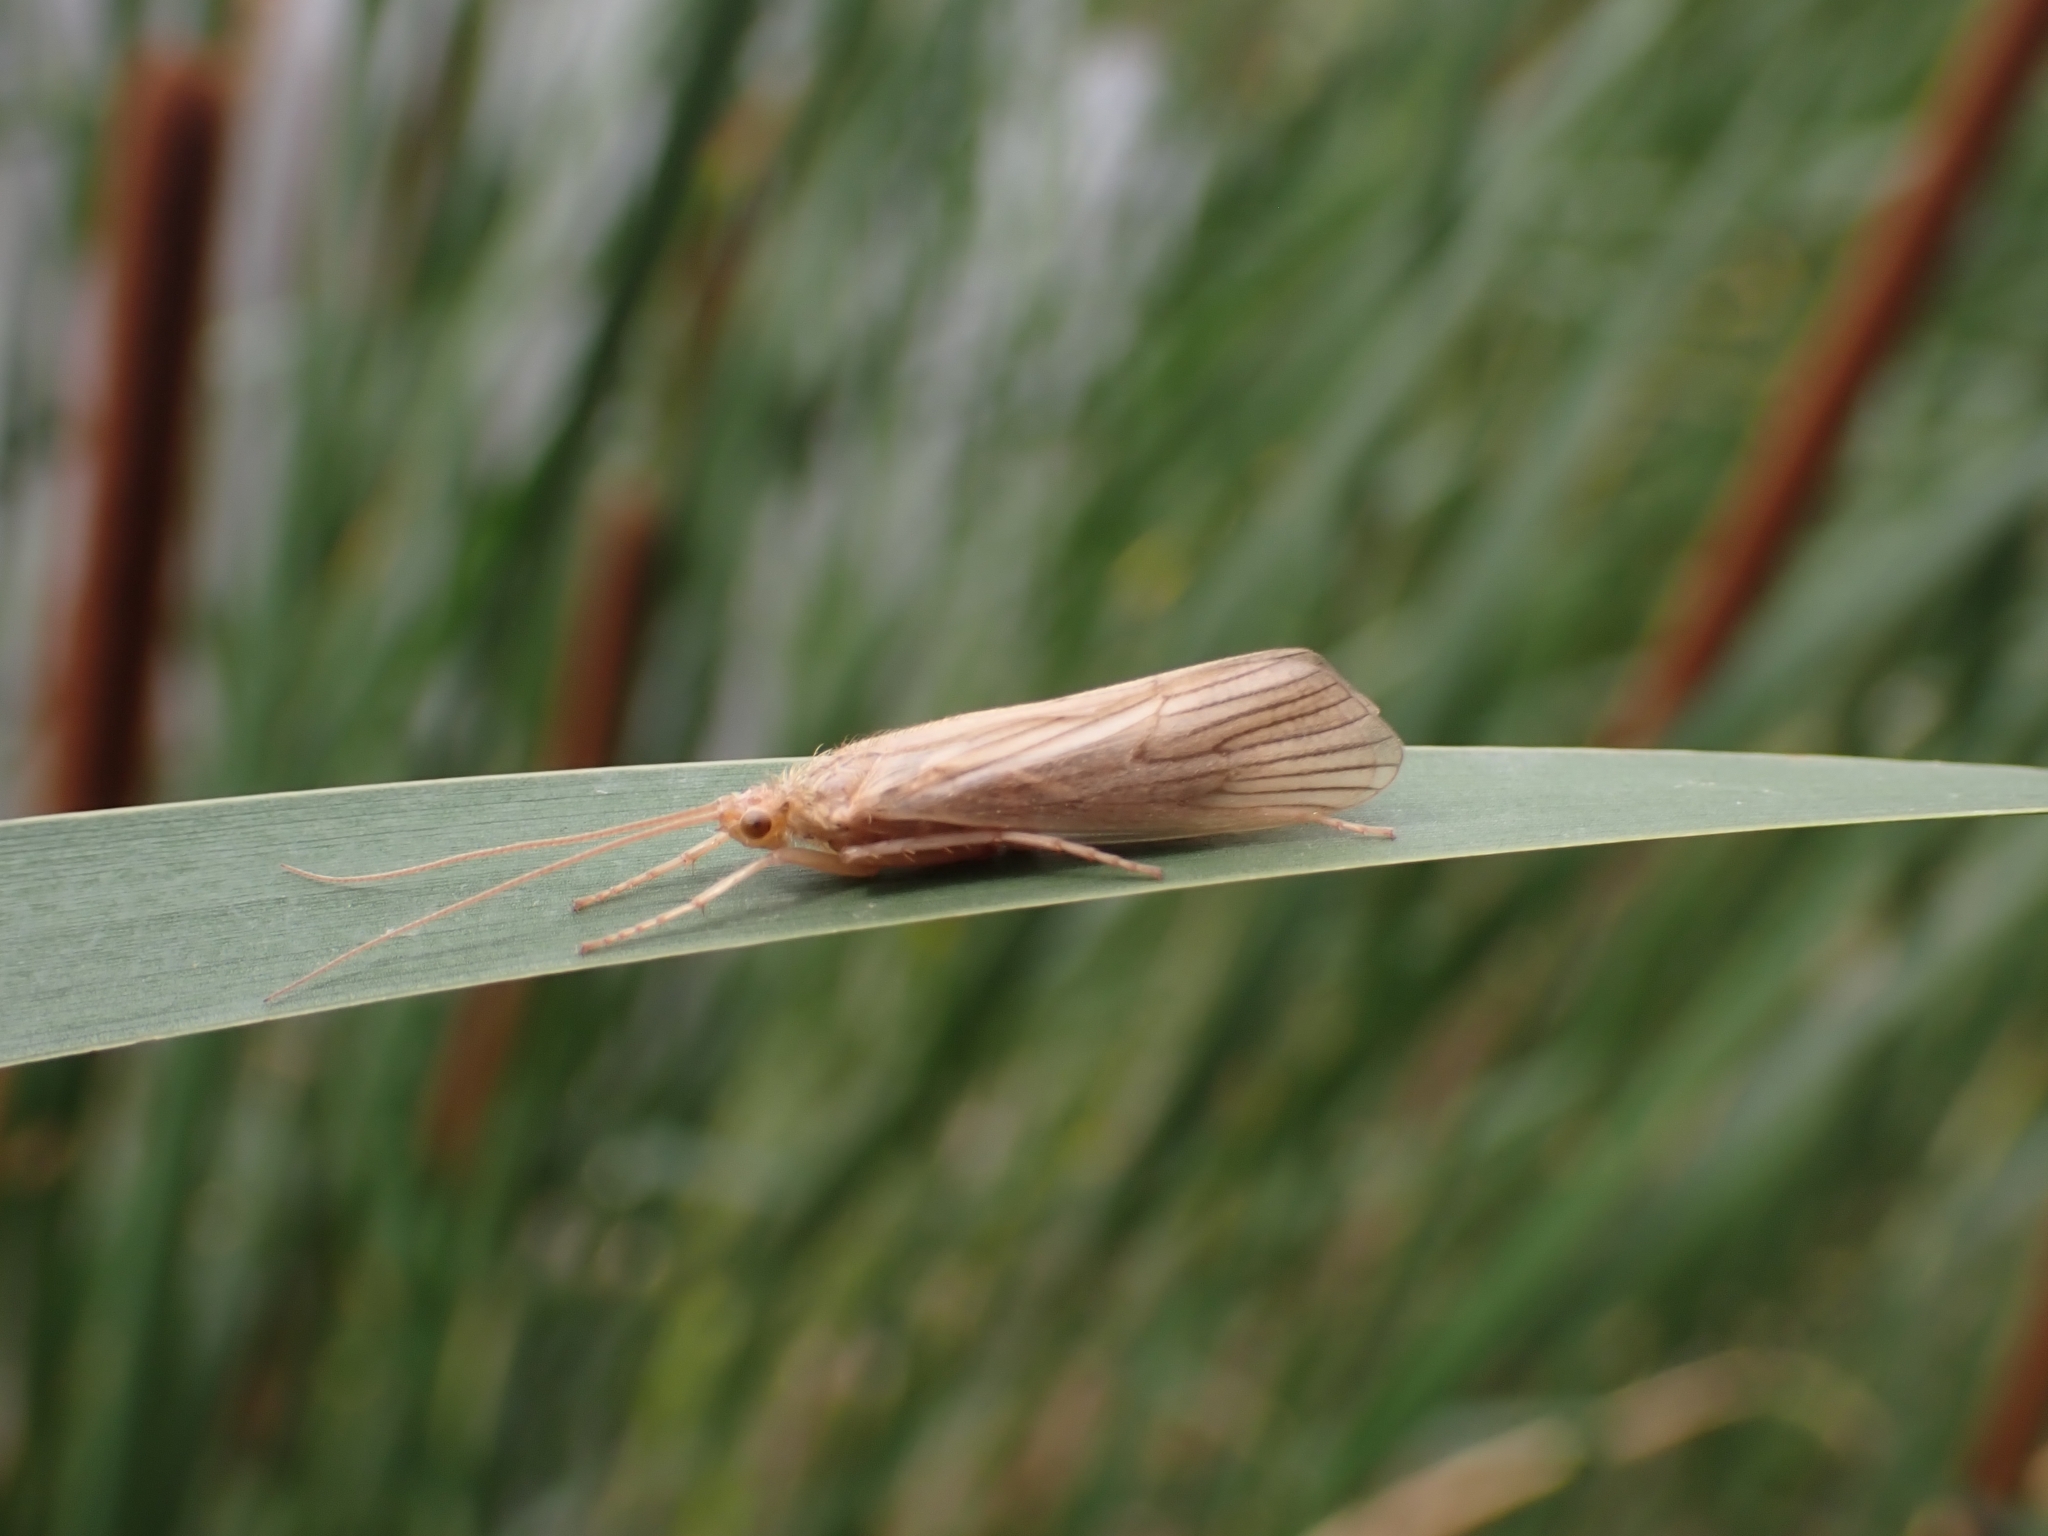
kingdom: Animalia
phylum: Arthropoda
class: Insecta
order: Trichoptera
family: Phryganeidae
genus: Agrypnia
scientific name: Agrypnia pagetana
